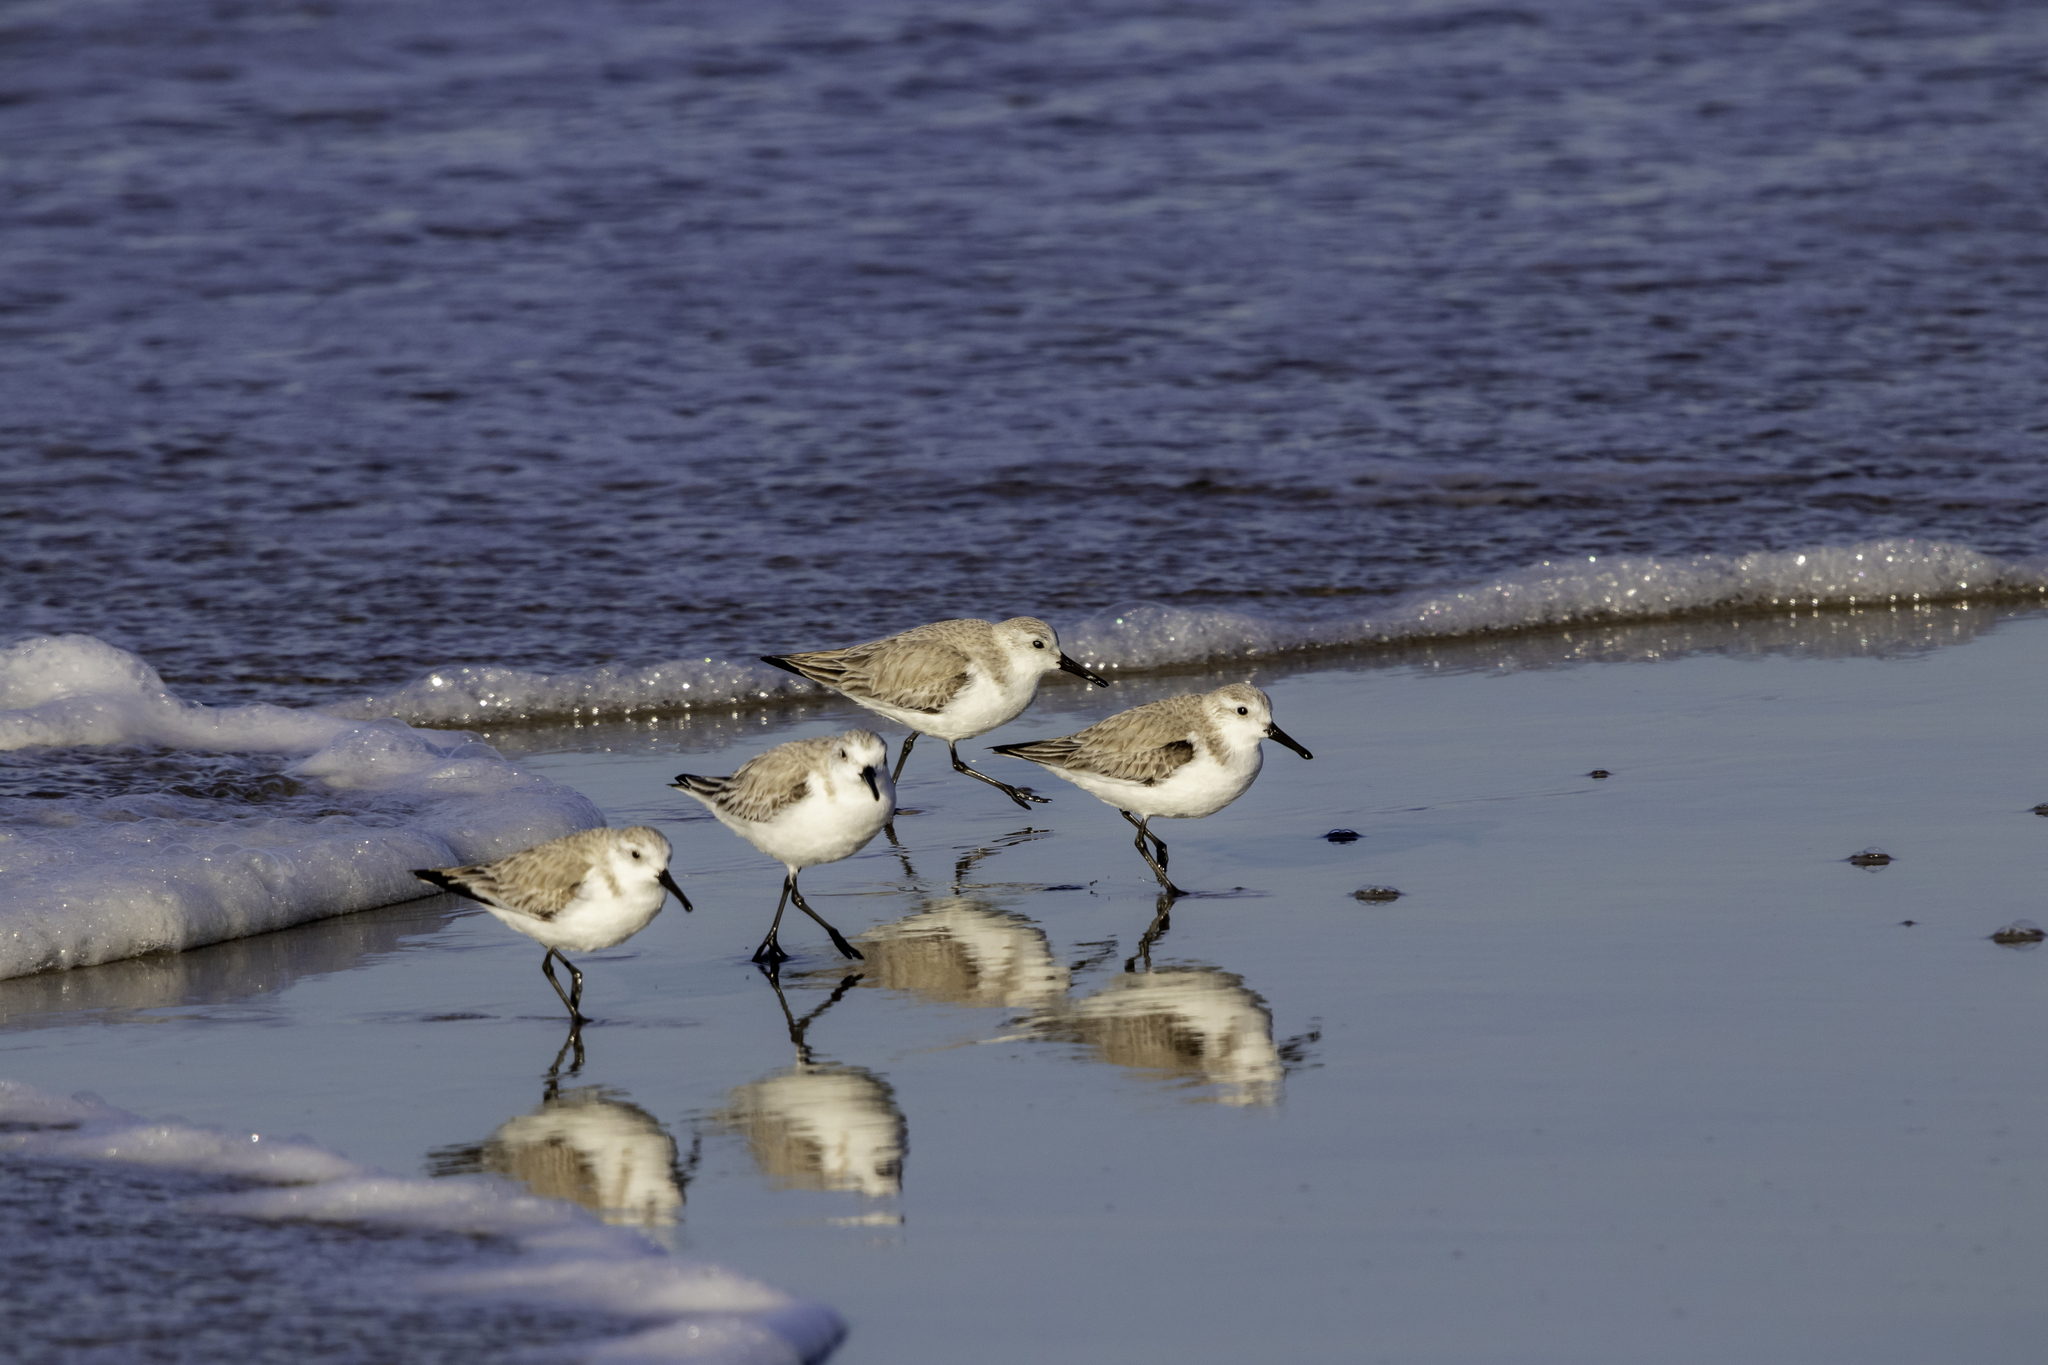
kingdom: Animalia
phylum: Chordata
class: Aves
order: Charadriiformes
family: Scolopacidae
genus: Calidris
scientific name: Calidris alba
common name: Sanderling
